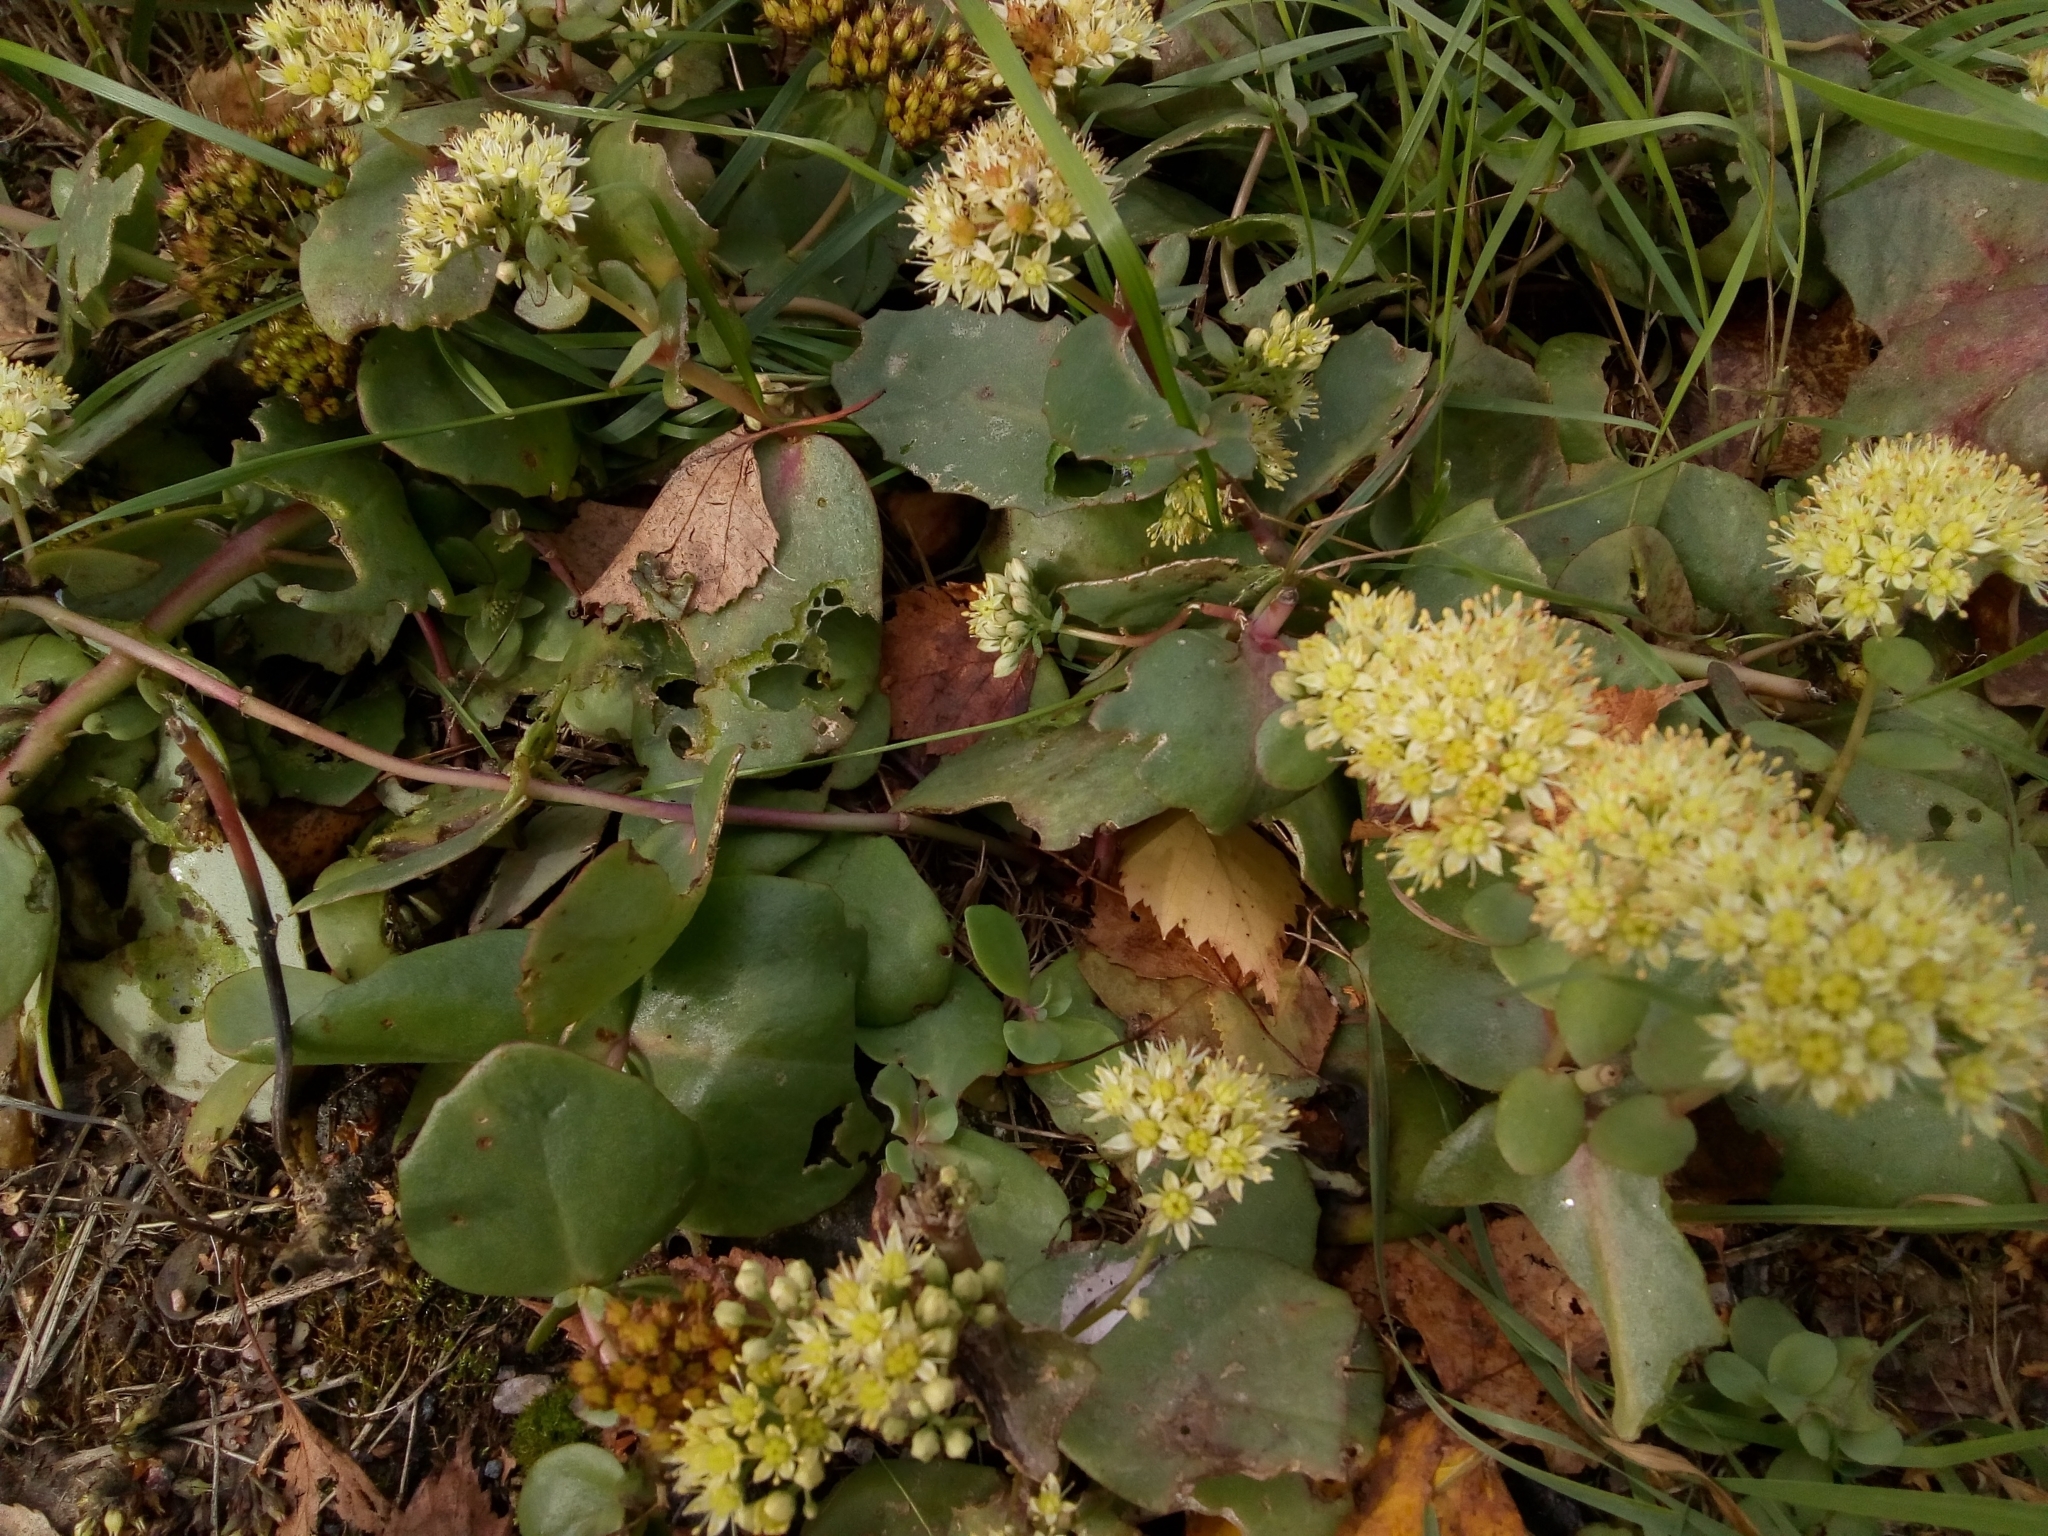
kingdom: Plantae
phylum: Tracheophyta
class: Magnoliopsida
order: Saxifragales
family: Crassulaceae
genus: Hylotelephium
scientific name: Hylotelephium maximum
